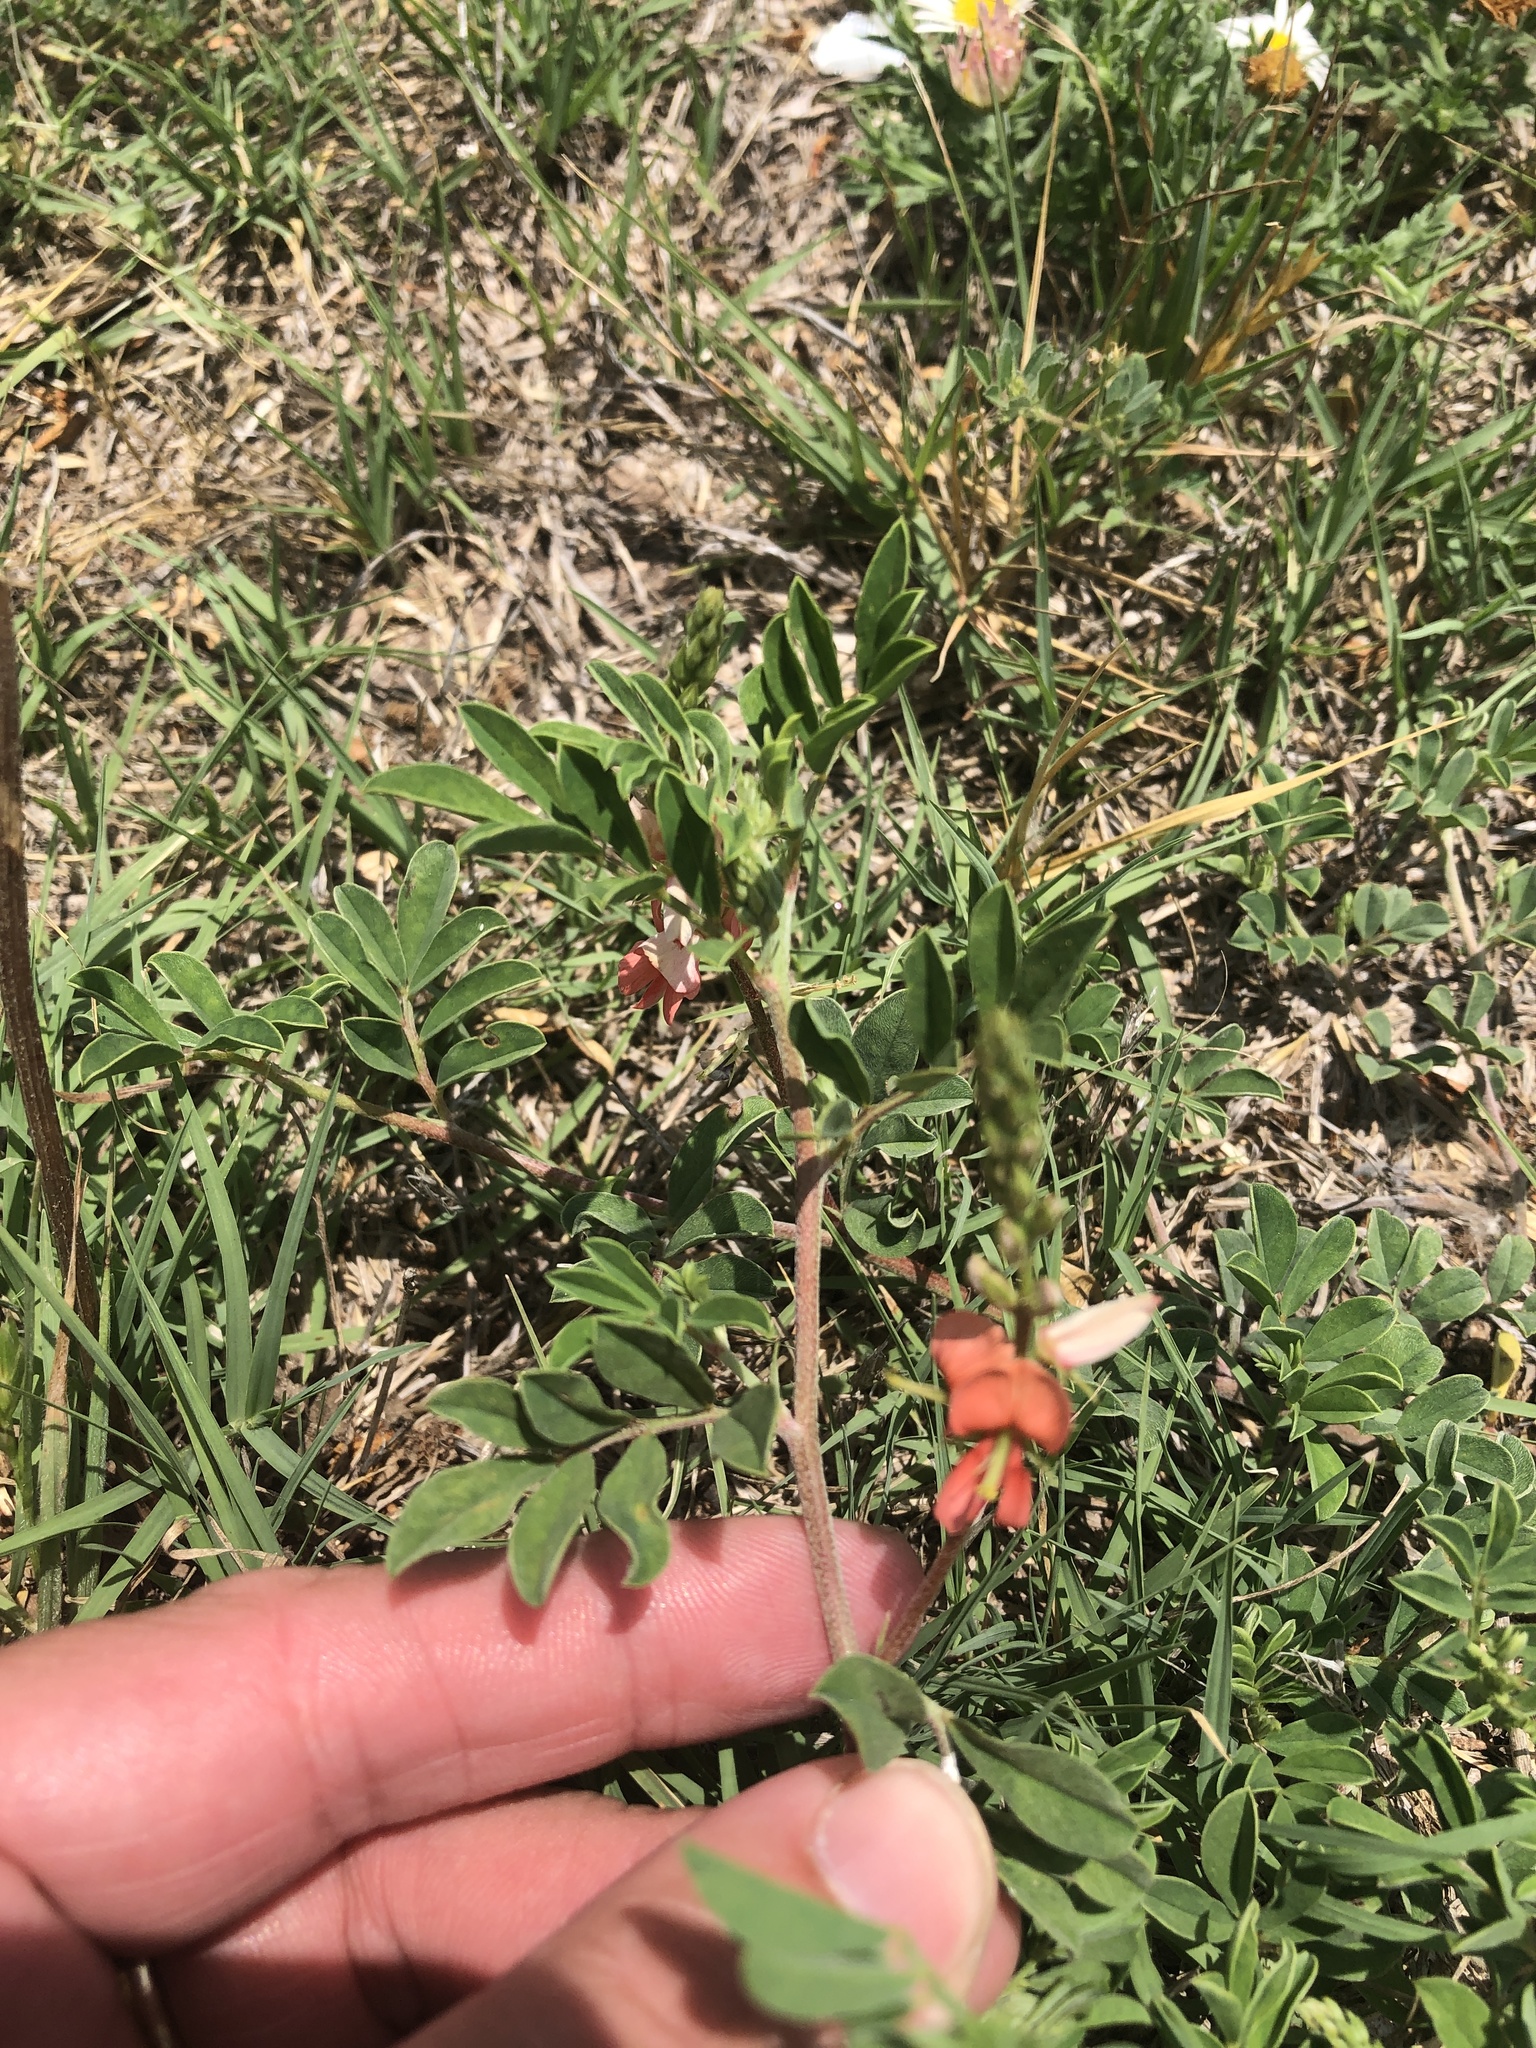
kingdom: Plantae
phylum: Tracheophyta
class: Magnoliopsida
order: Fabales
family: Fabaceae
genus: Indigofera
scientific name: Indigofera miniata
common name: Coast indigo
